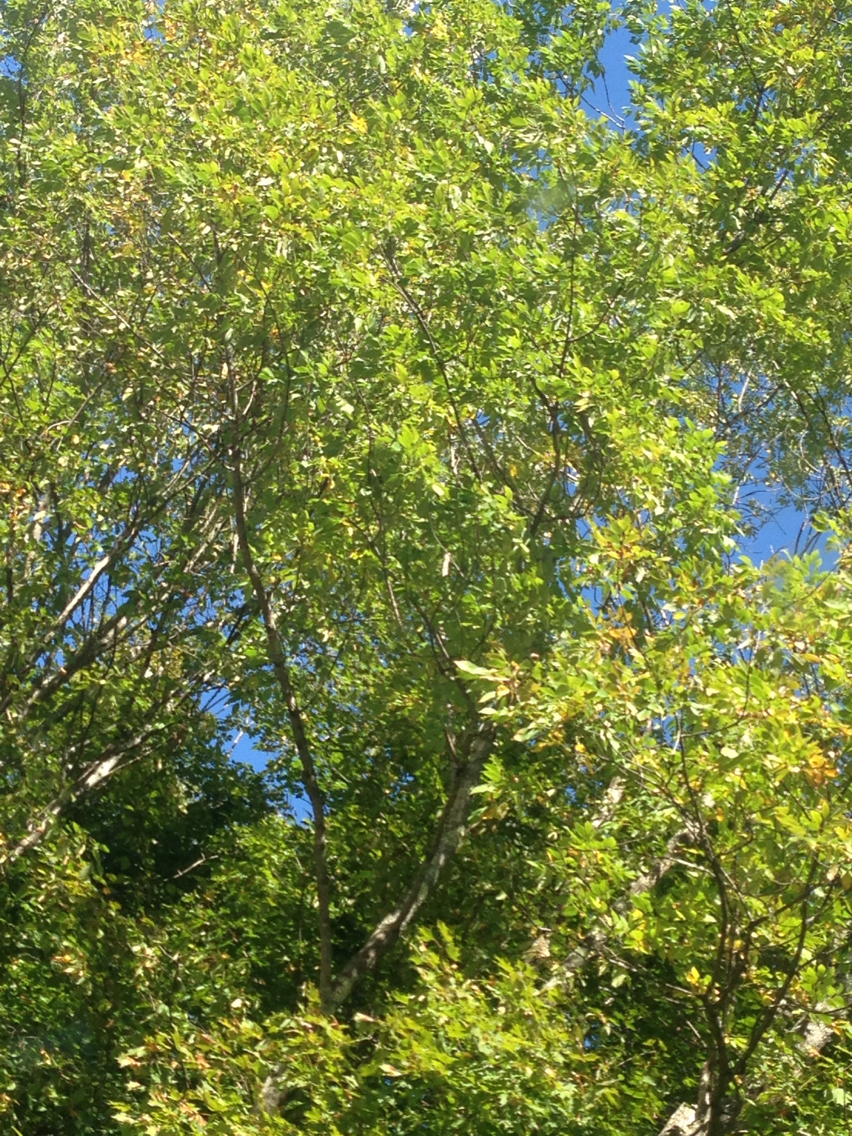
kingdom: Plantae
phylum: Tracheophyta
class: Magnoliopsida
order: Lamiales
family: Oleaceae
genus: Fraxinus
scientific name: Fraxinus americana
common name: White ash
